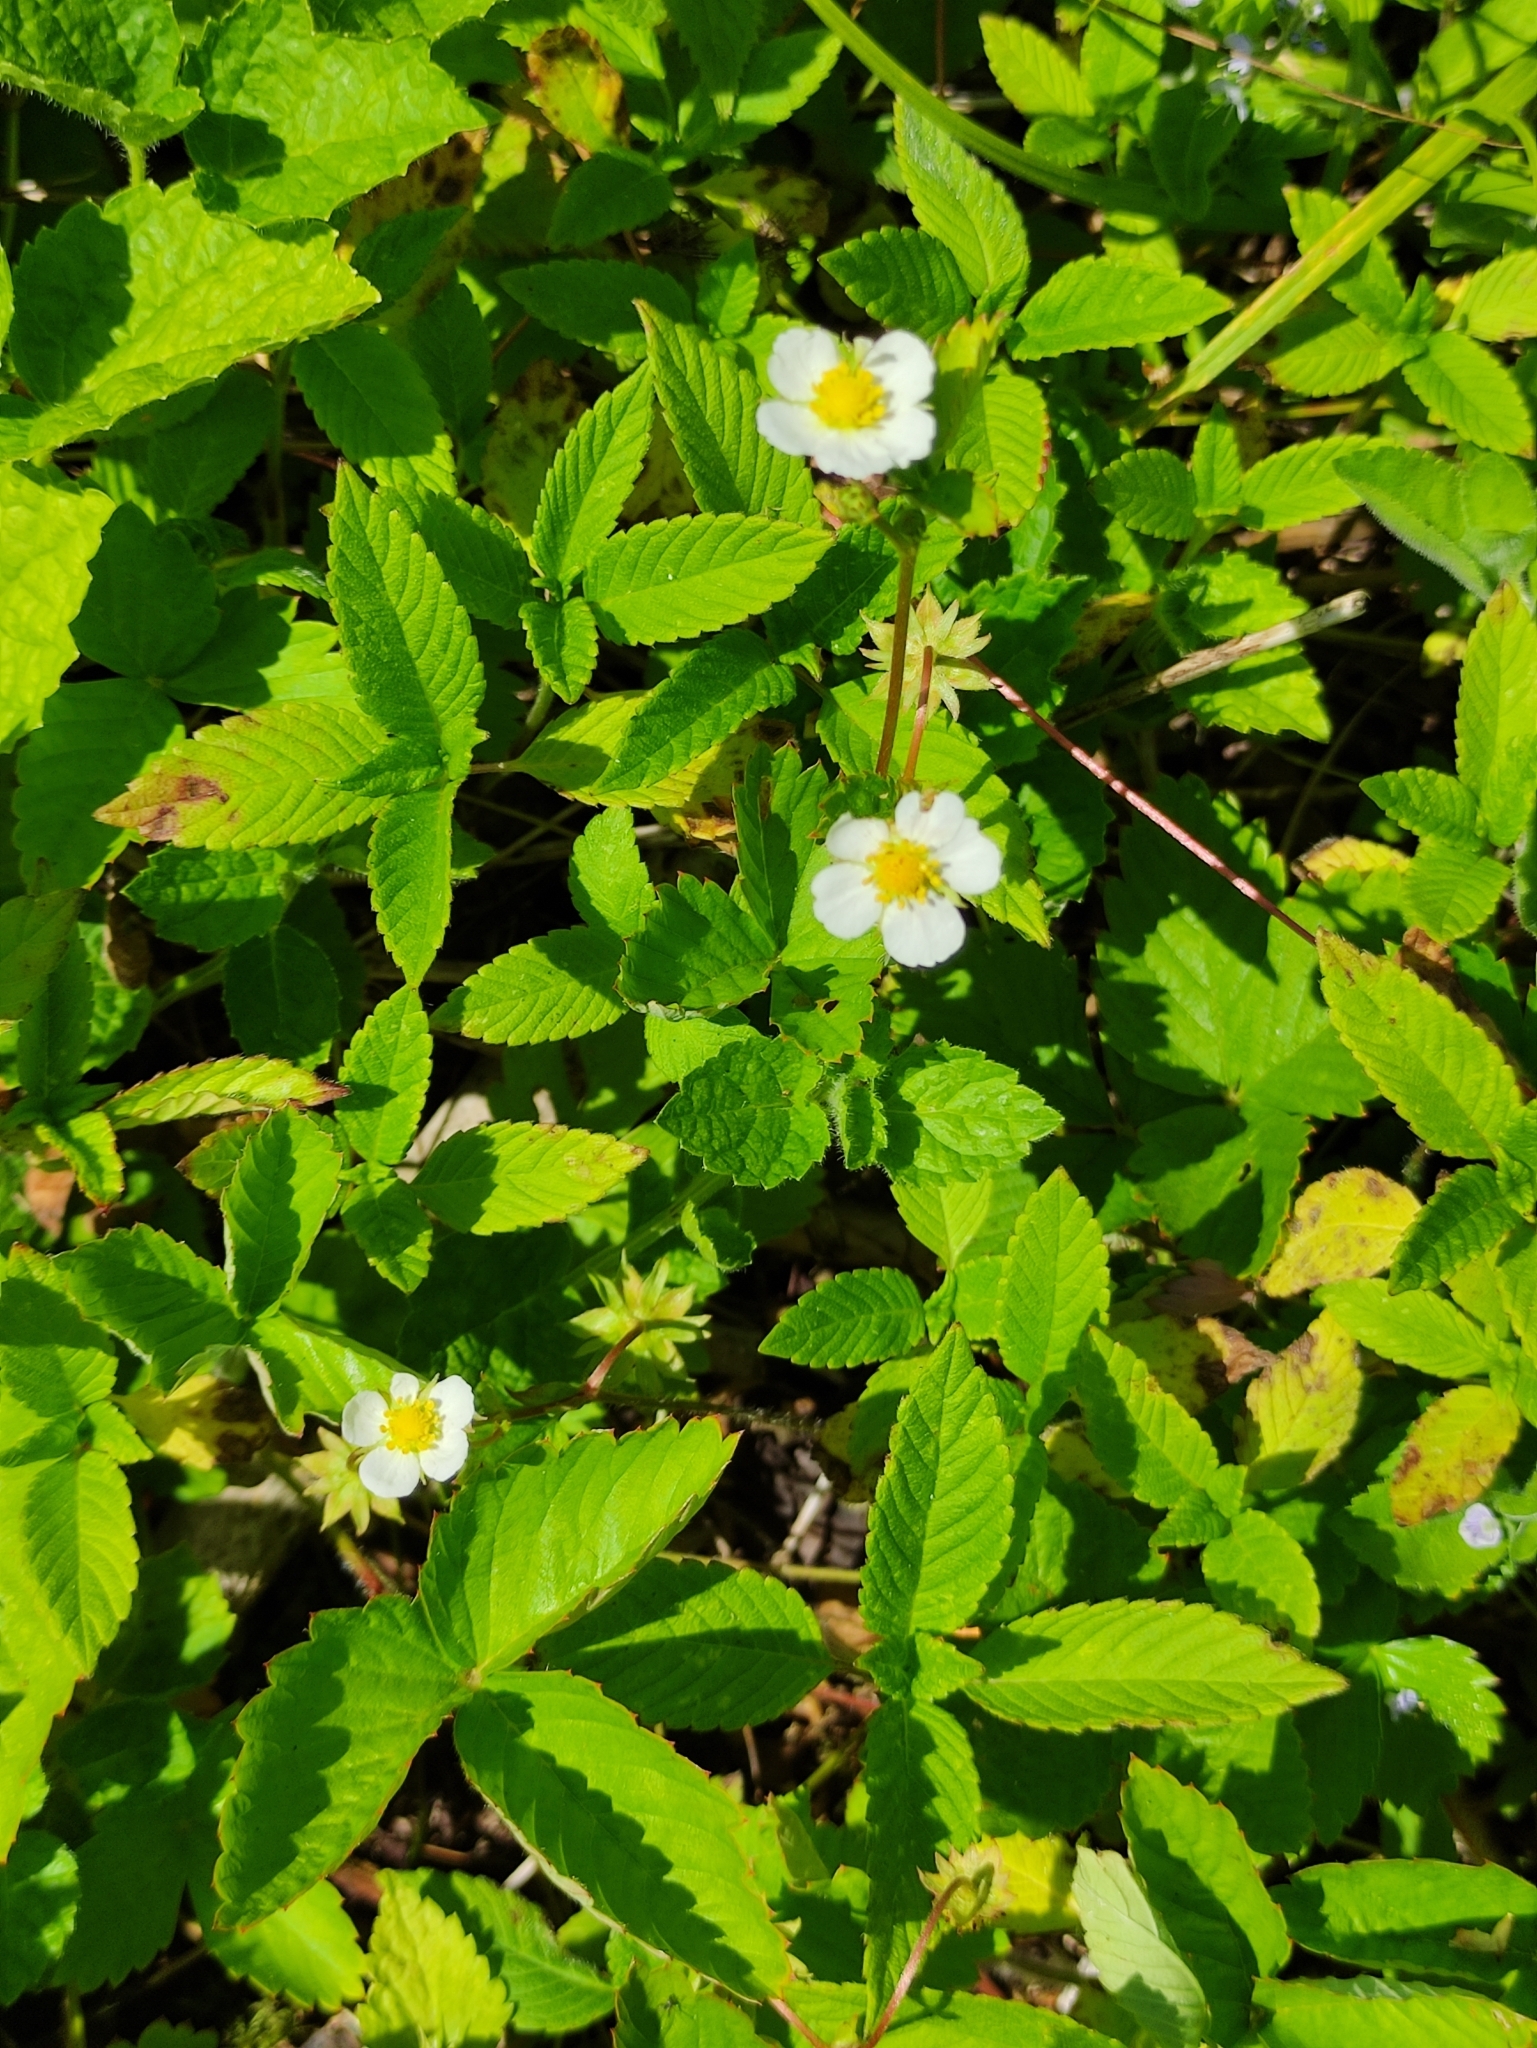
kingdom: Plantae
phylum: Tracheophyta
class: Magnoliopsida
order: Rosales
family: Rosaceae
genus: Fragaria
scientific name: Fragaria vesca
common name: Wild strawberry
